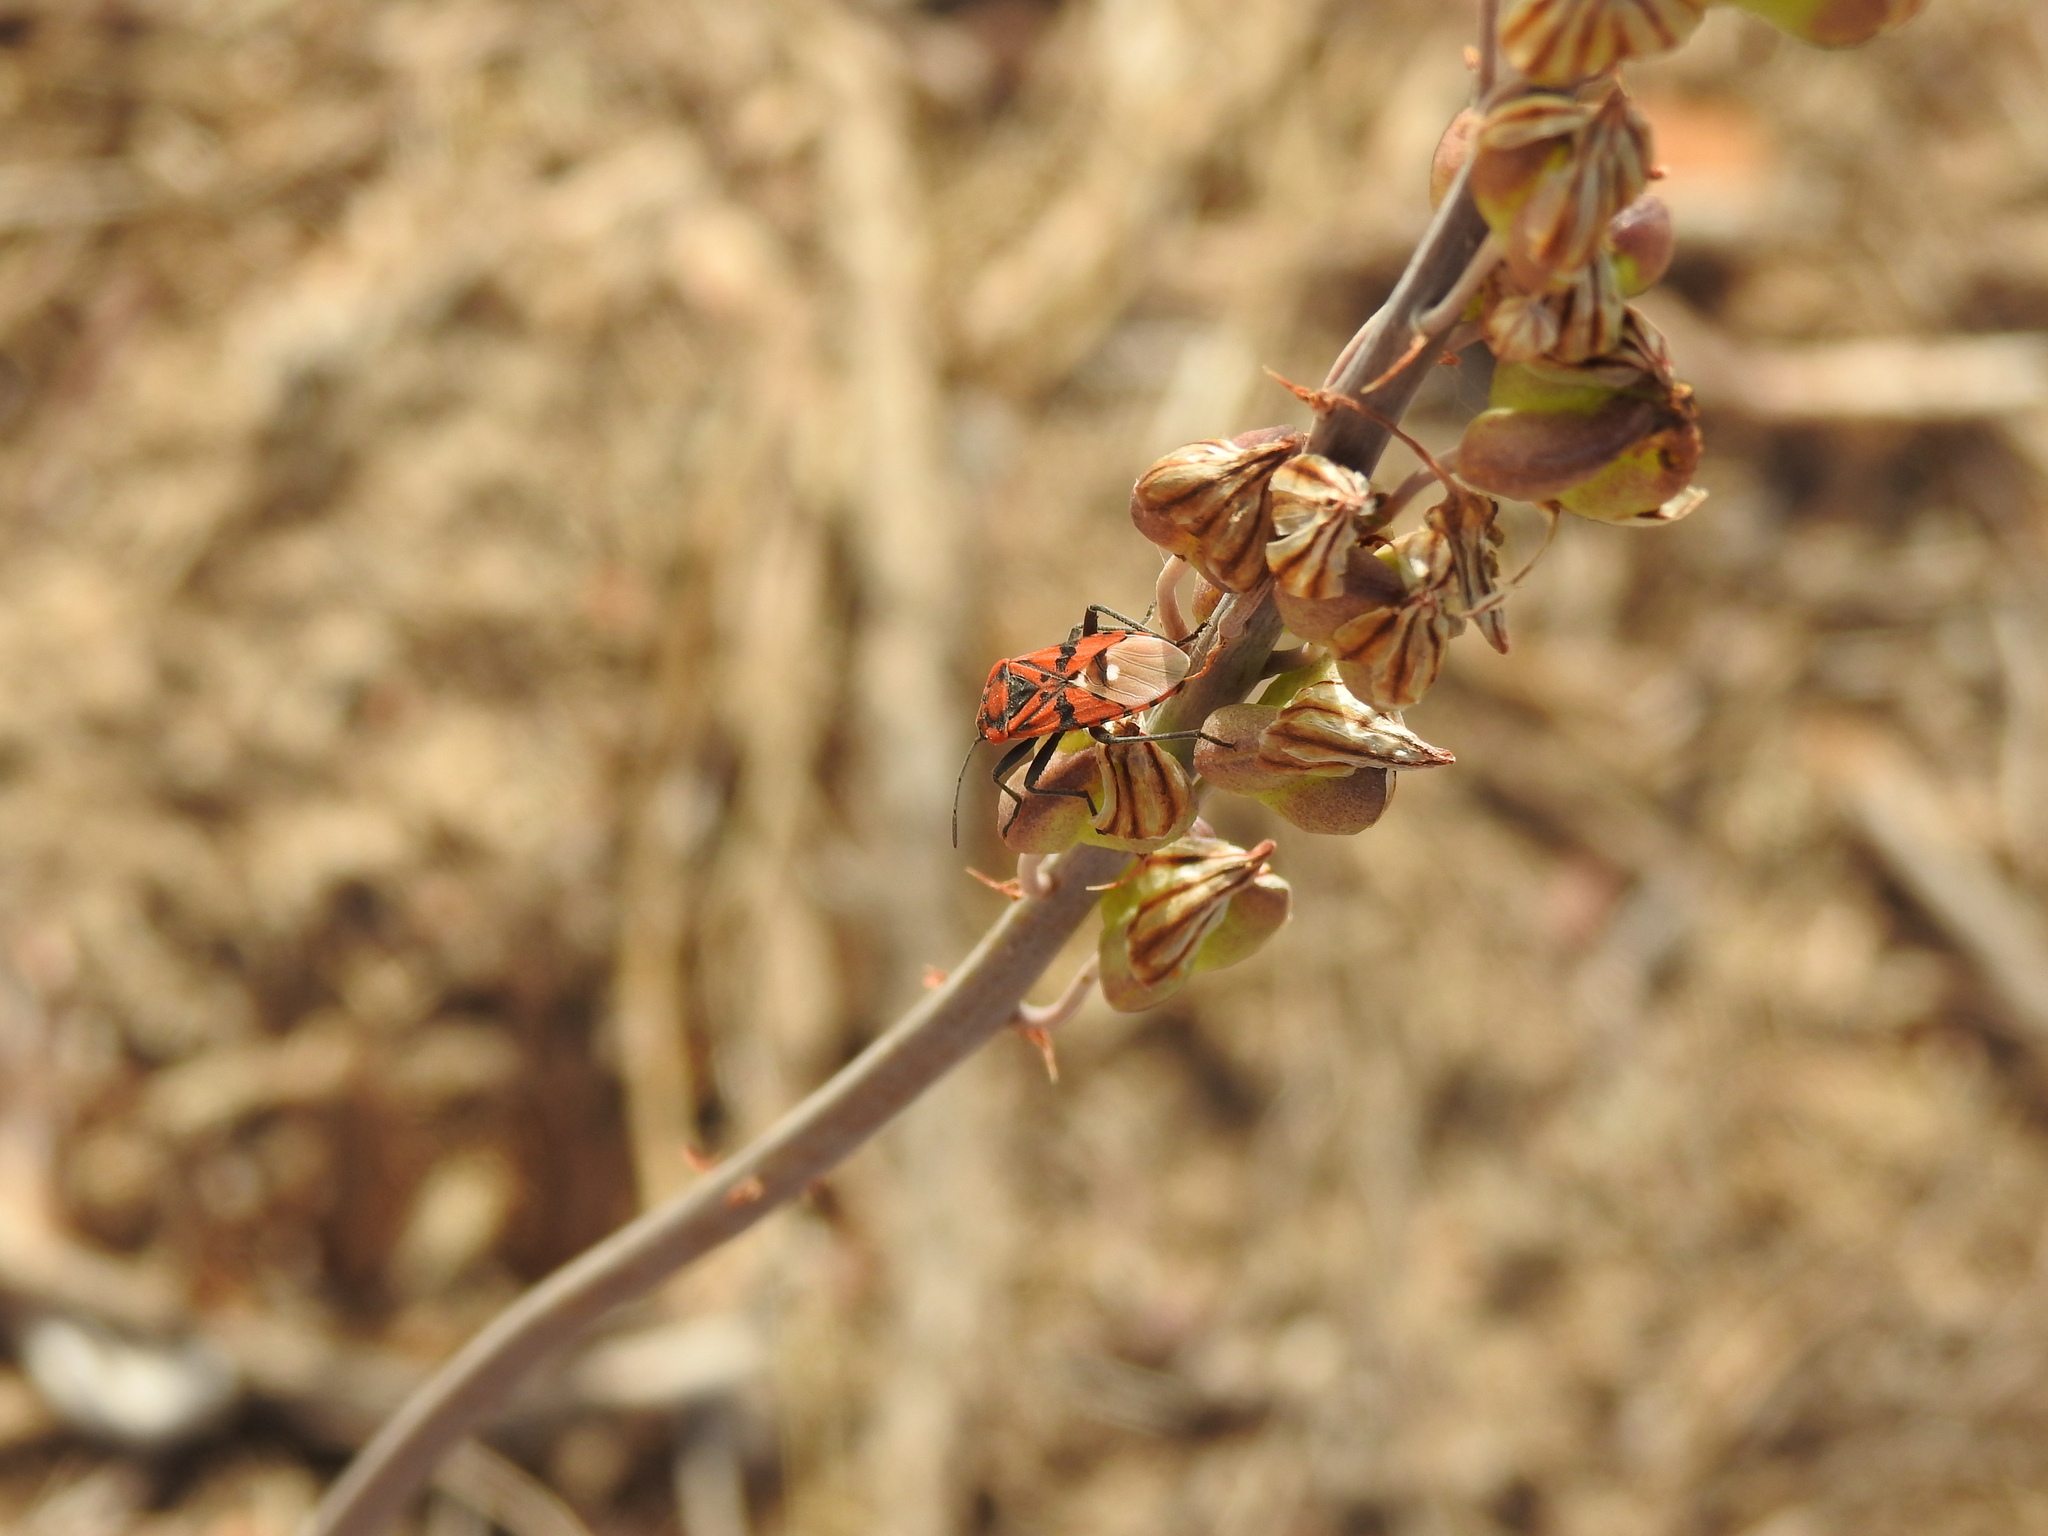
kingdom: Animalia
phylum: Arthropoda
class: Insecta
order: Hemiptera
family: Lygaeidae
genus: Spilostethus
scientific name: Spilostethus pandurus
